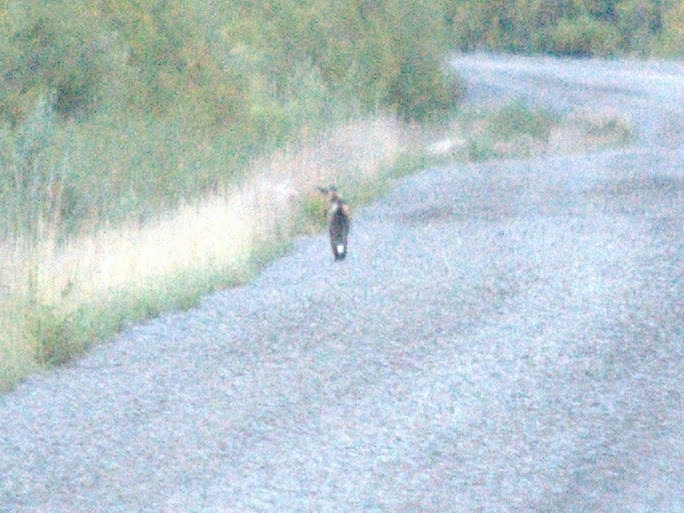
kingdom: Animalia
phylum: Chordata
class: Mammalia
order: Carnivora
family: Canidae
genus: Vulpes
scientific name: Vulpes vulpes
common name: Red fox
